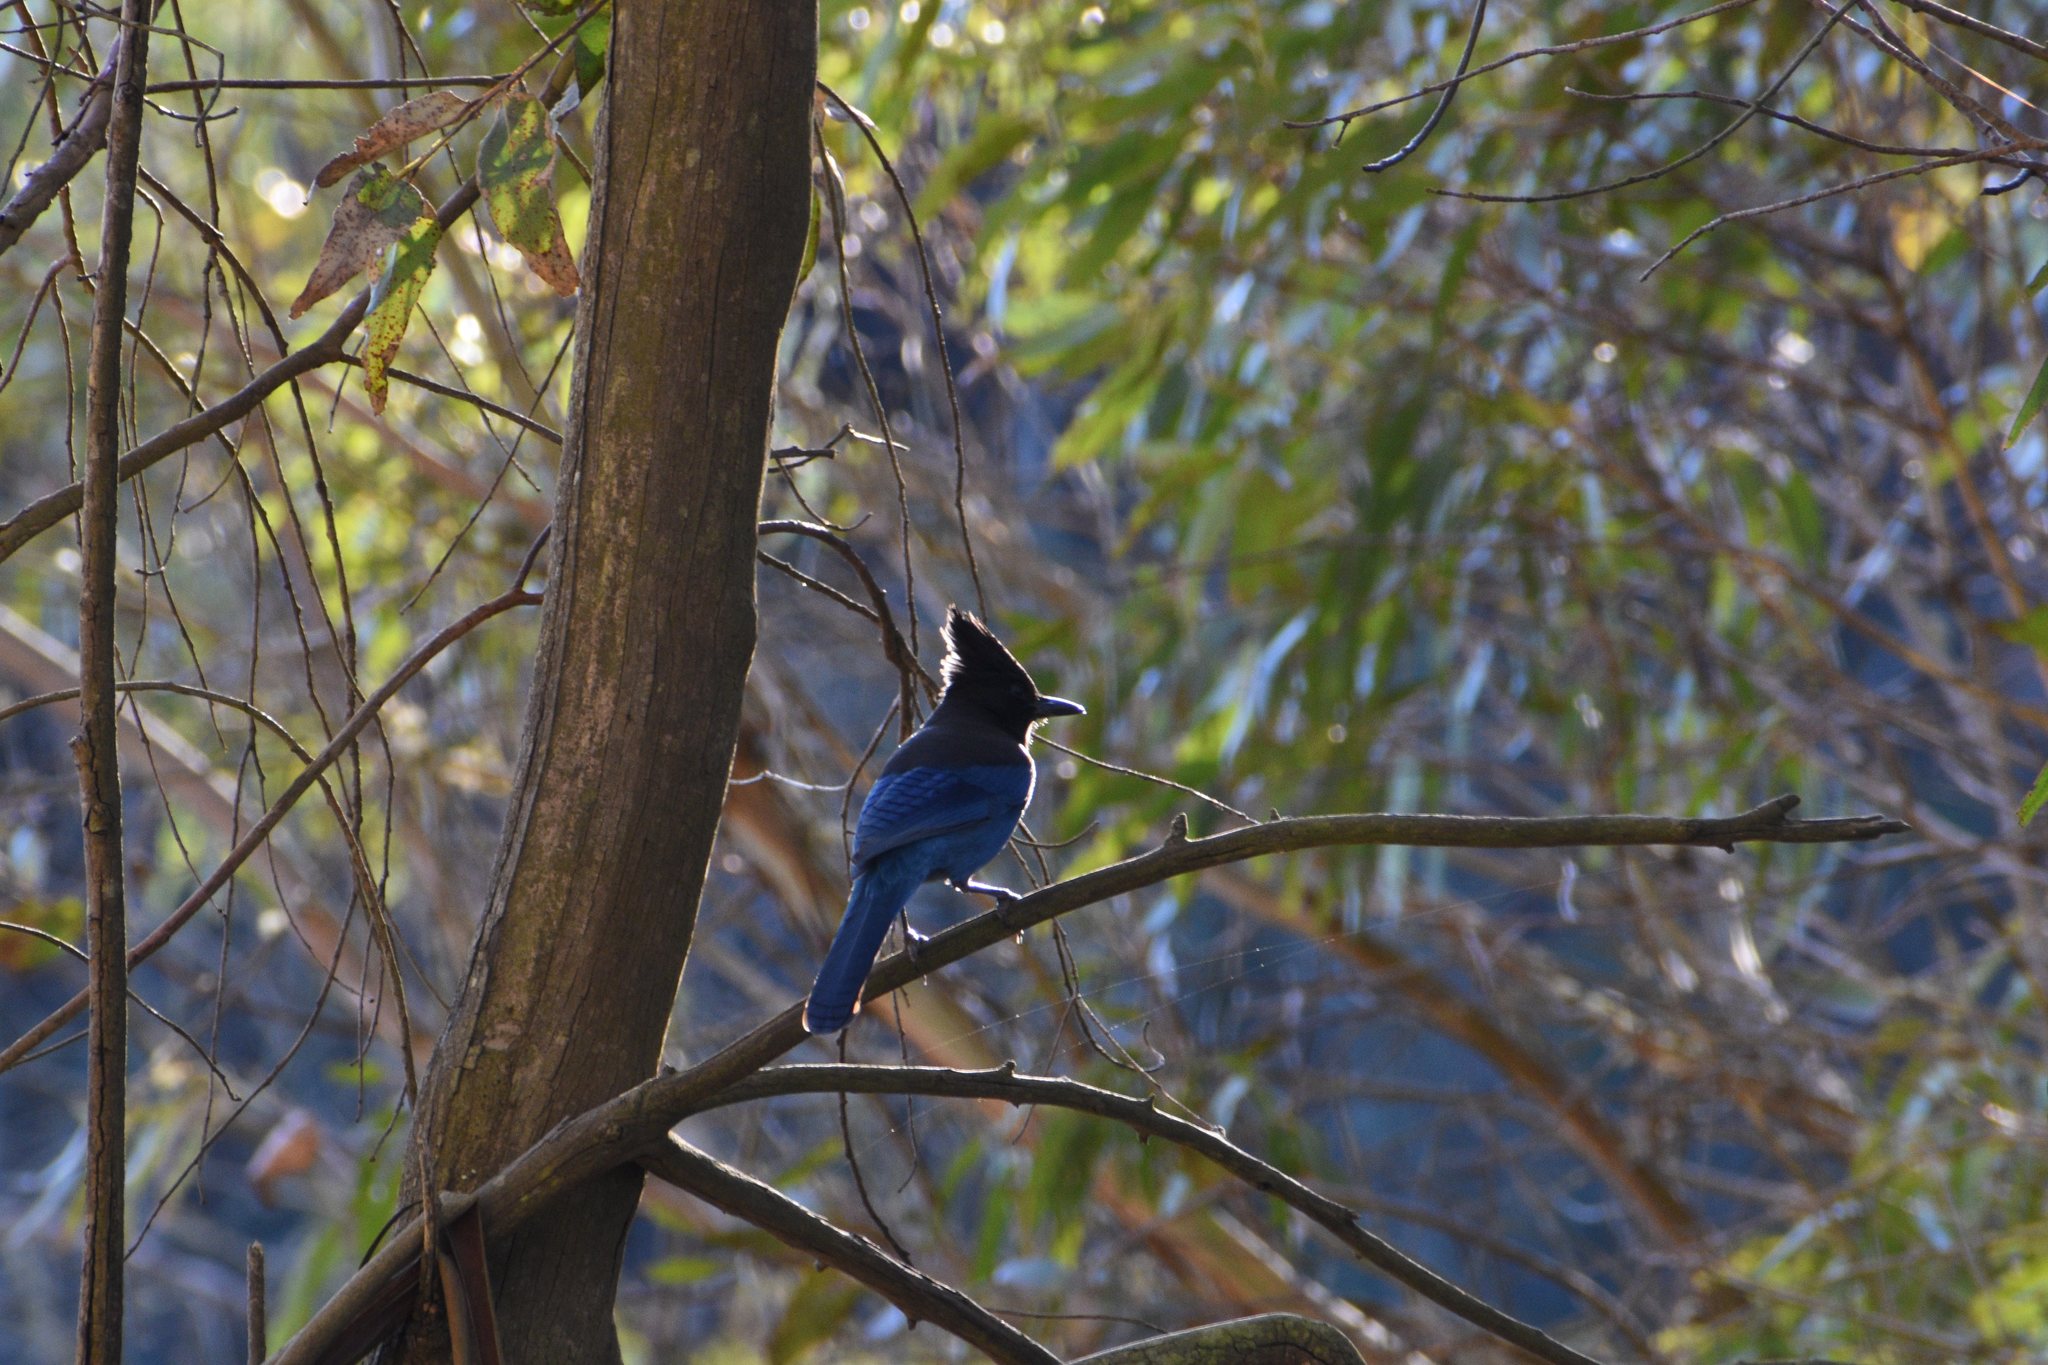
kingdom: Animalia
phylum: Chordata
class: Aves
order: Passeriformes
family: Corvidae
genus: Cyanocitta
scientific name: Cyanocitta stelleri
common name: Steller's jay
